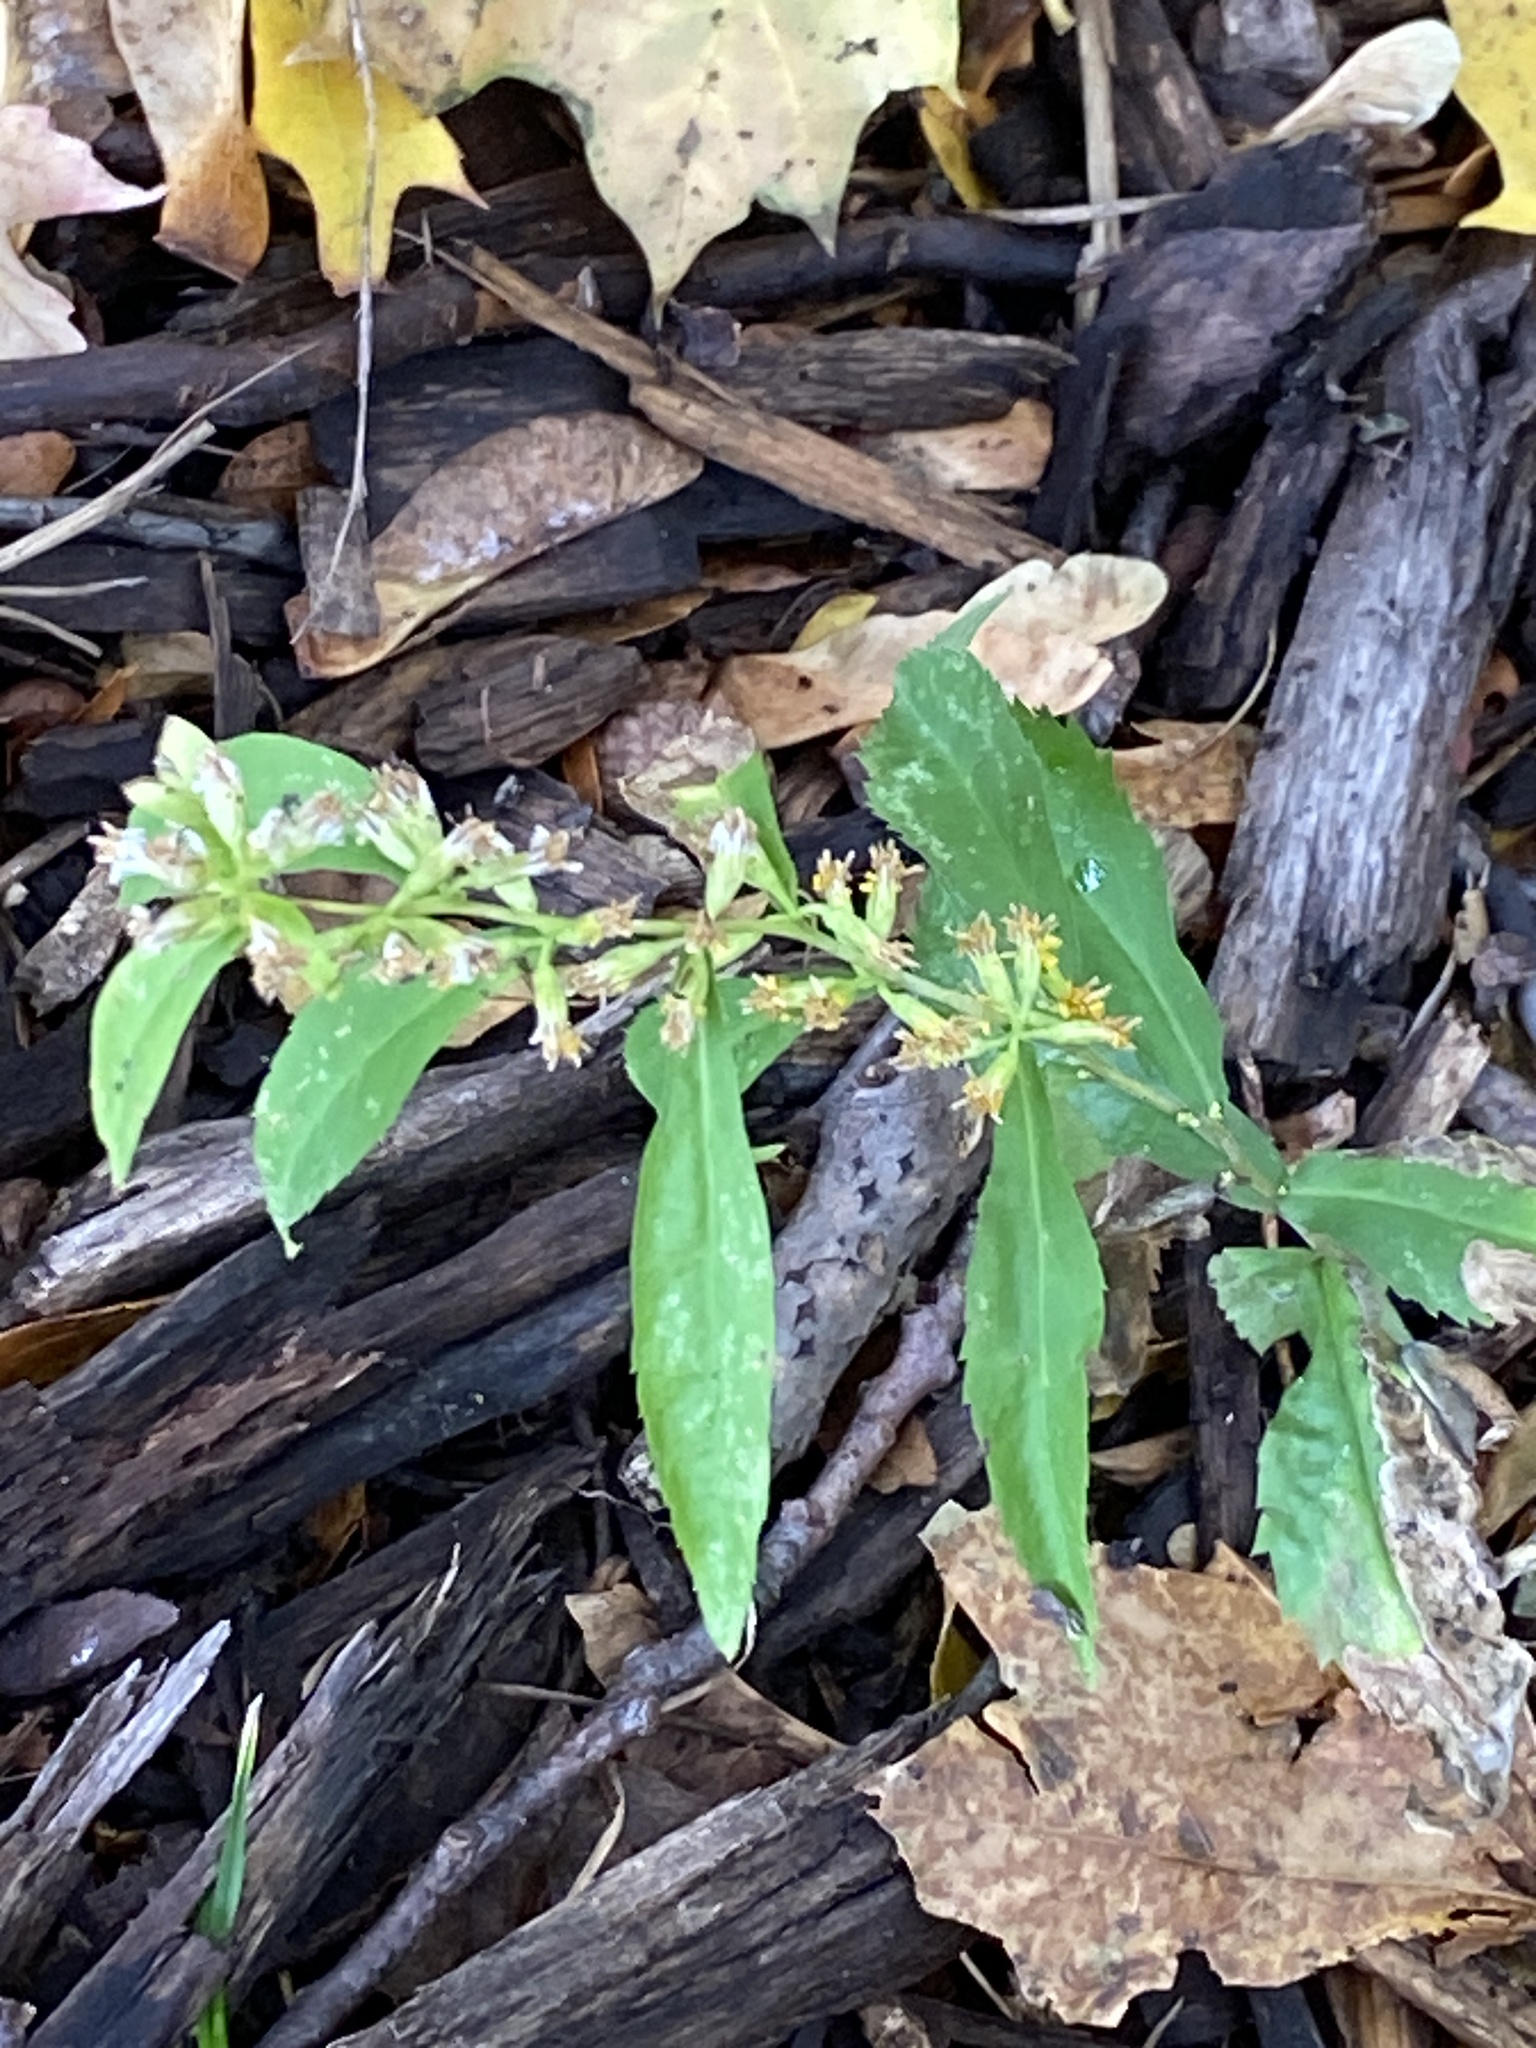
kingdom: Plantae
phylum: Tracheophyta
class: Magnoliopsida
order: Asterales
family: Asteraceae
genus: Solidago
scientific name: Solidago caesia
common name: Woodland goldenrod
